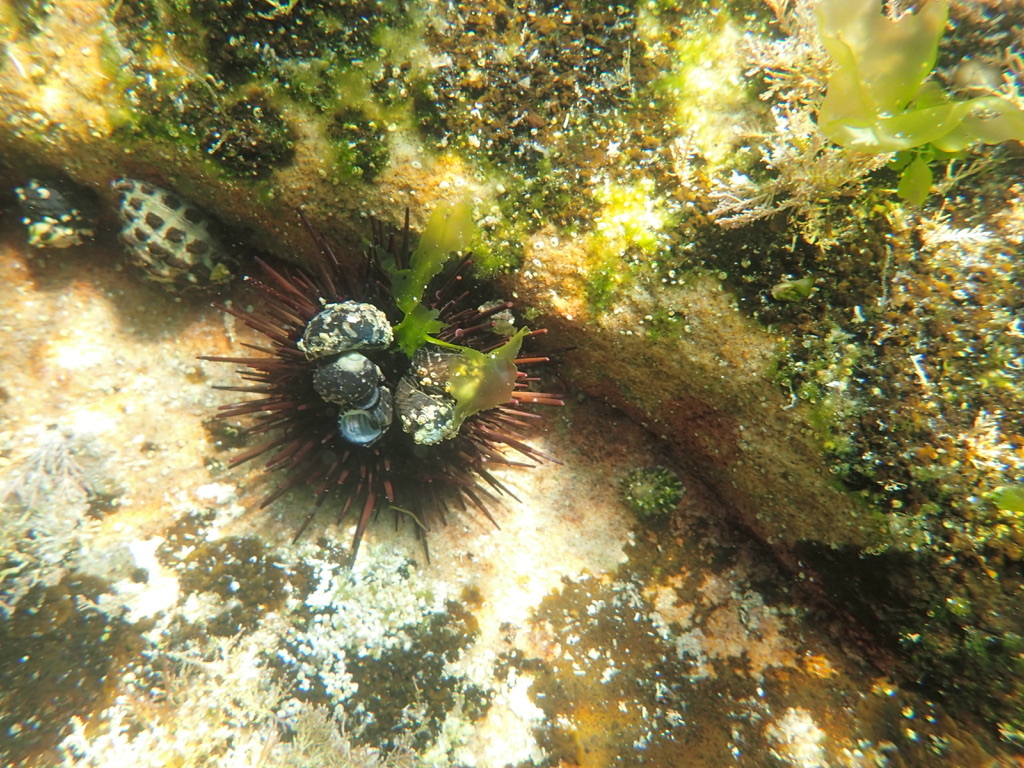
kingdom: Animalia
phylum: Echinodermata
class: Echinoidea
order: Camarodonta
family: Echinometridae
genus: Heliocidaris
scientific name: Heliocidaris erythrogramma
